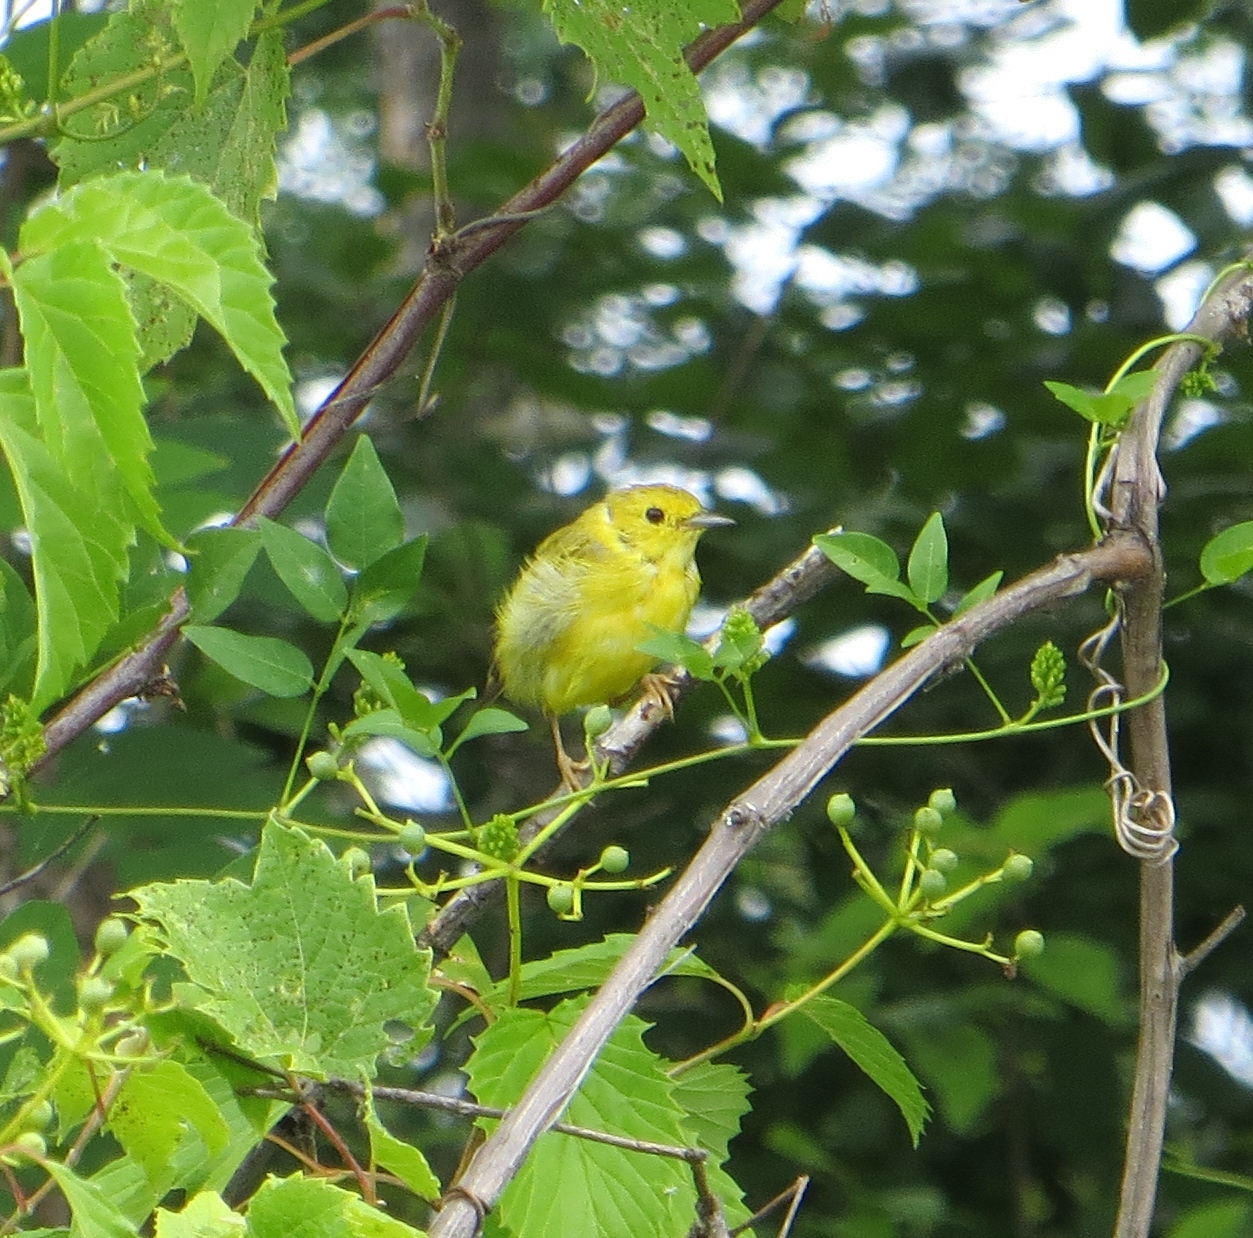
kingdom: Animalia
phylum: Chordata
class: Aves
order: Passeriformes
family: Parulidae
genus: Setophaga
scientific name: Setophaga petechia
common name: Yellow warbler
